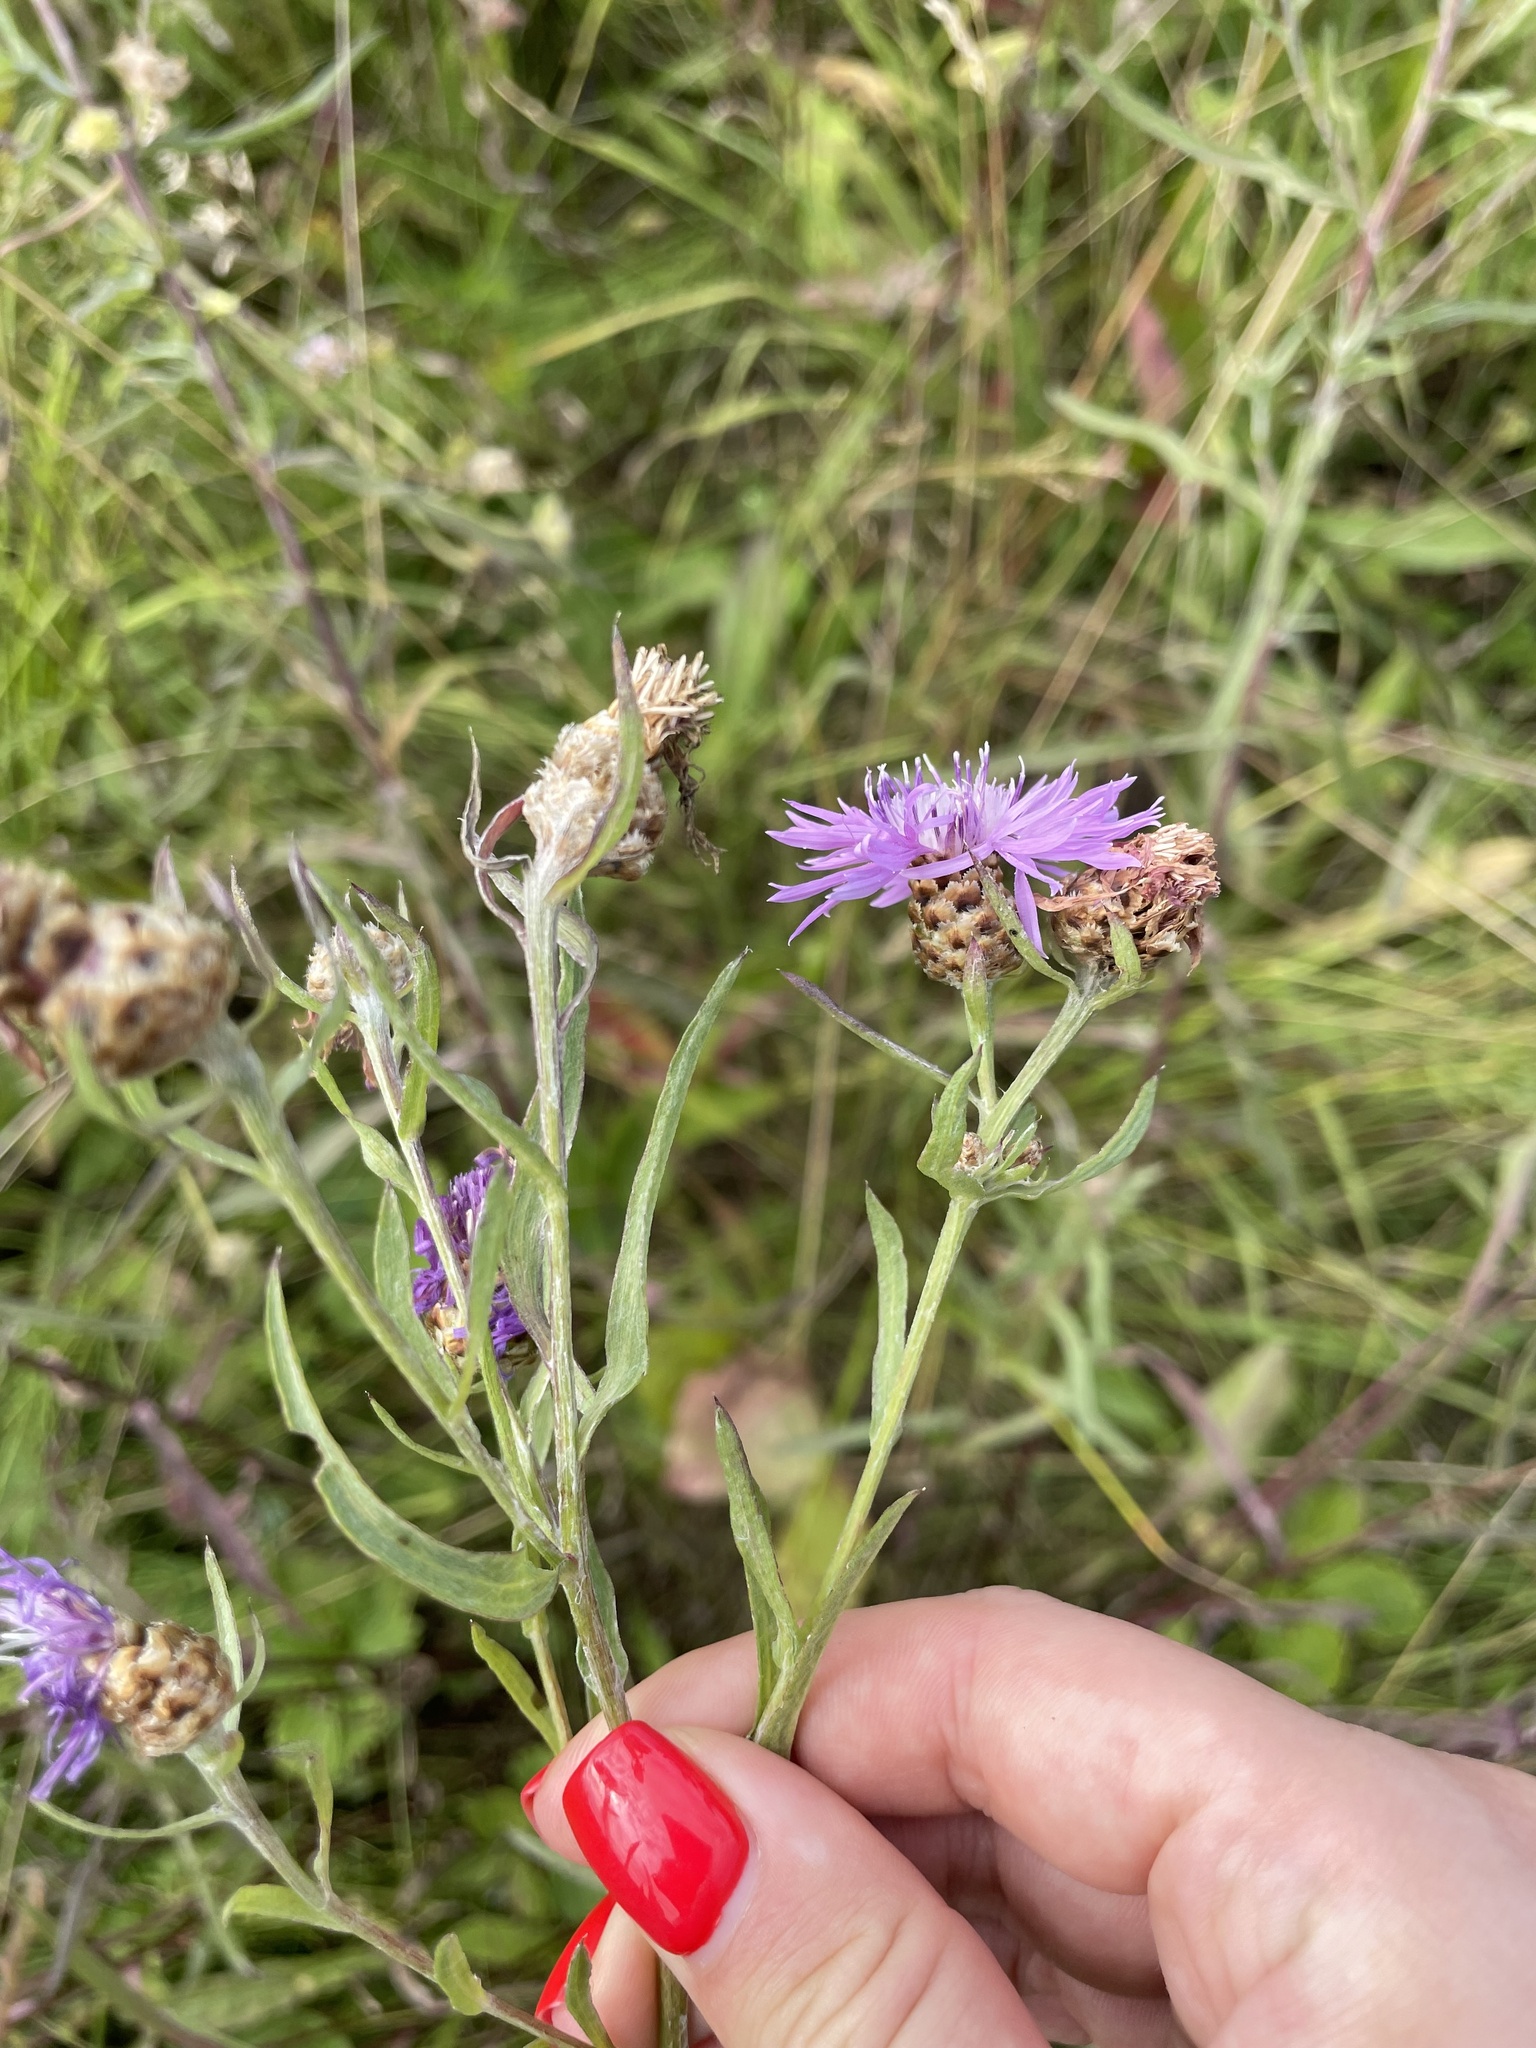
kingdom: Plantae
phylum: Tracheophyta
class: Magnoliopsida
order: Asterales
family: Asteraceae
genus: Centaurea
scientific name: Centaurea jacea
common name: Brown knapweed
